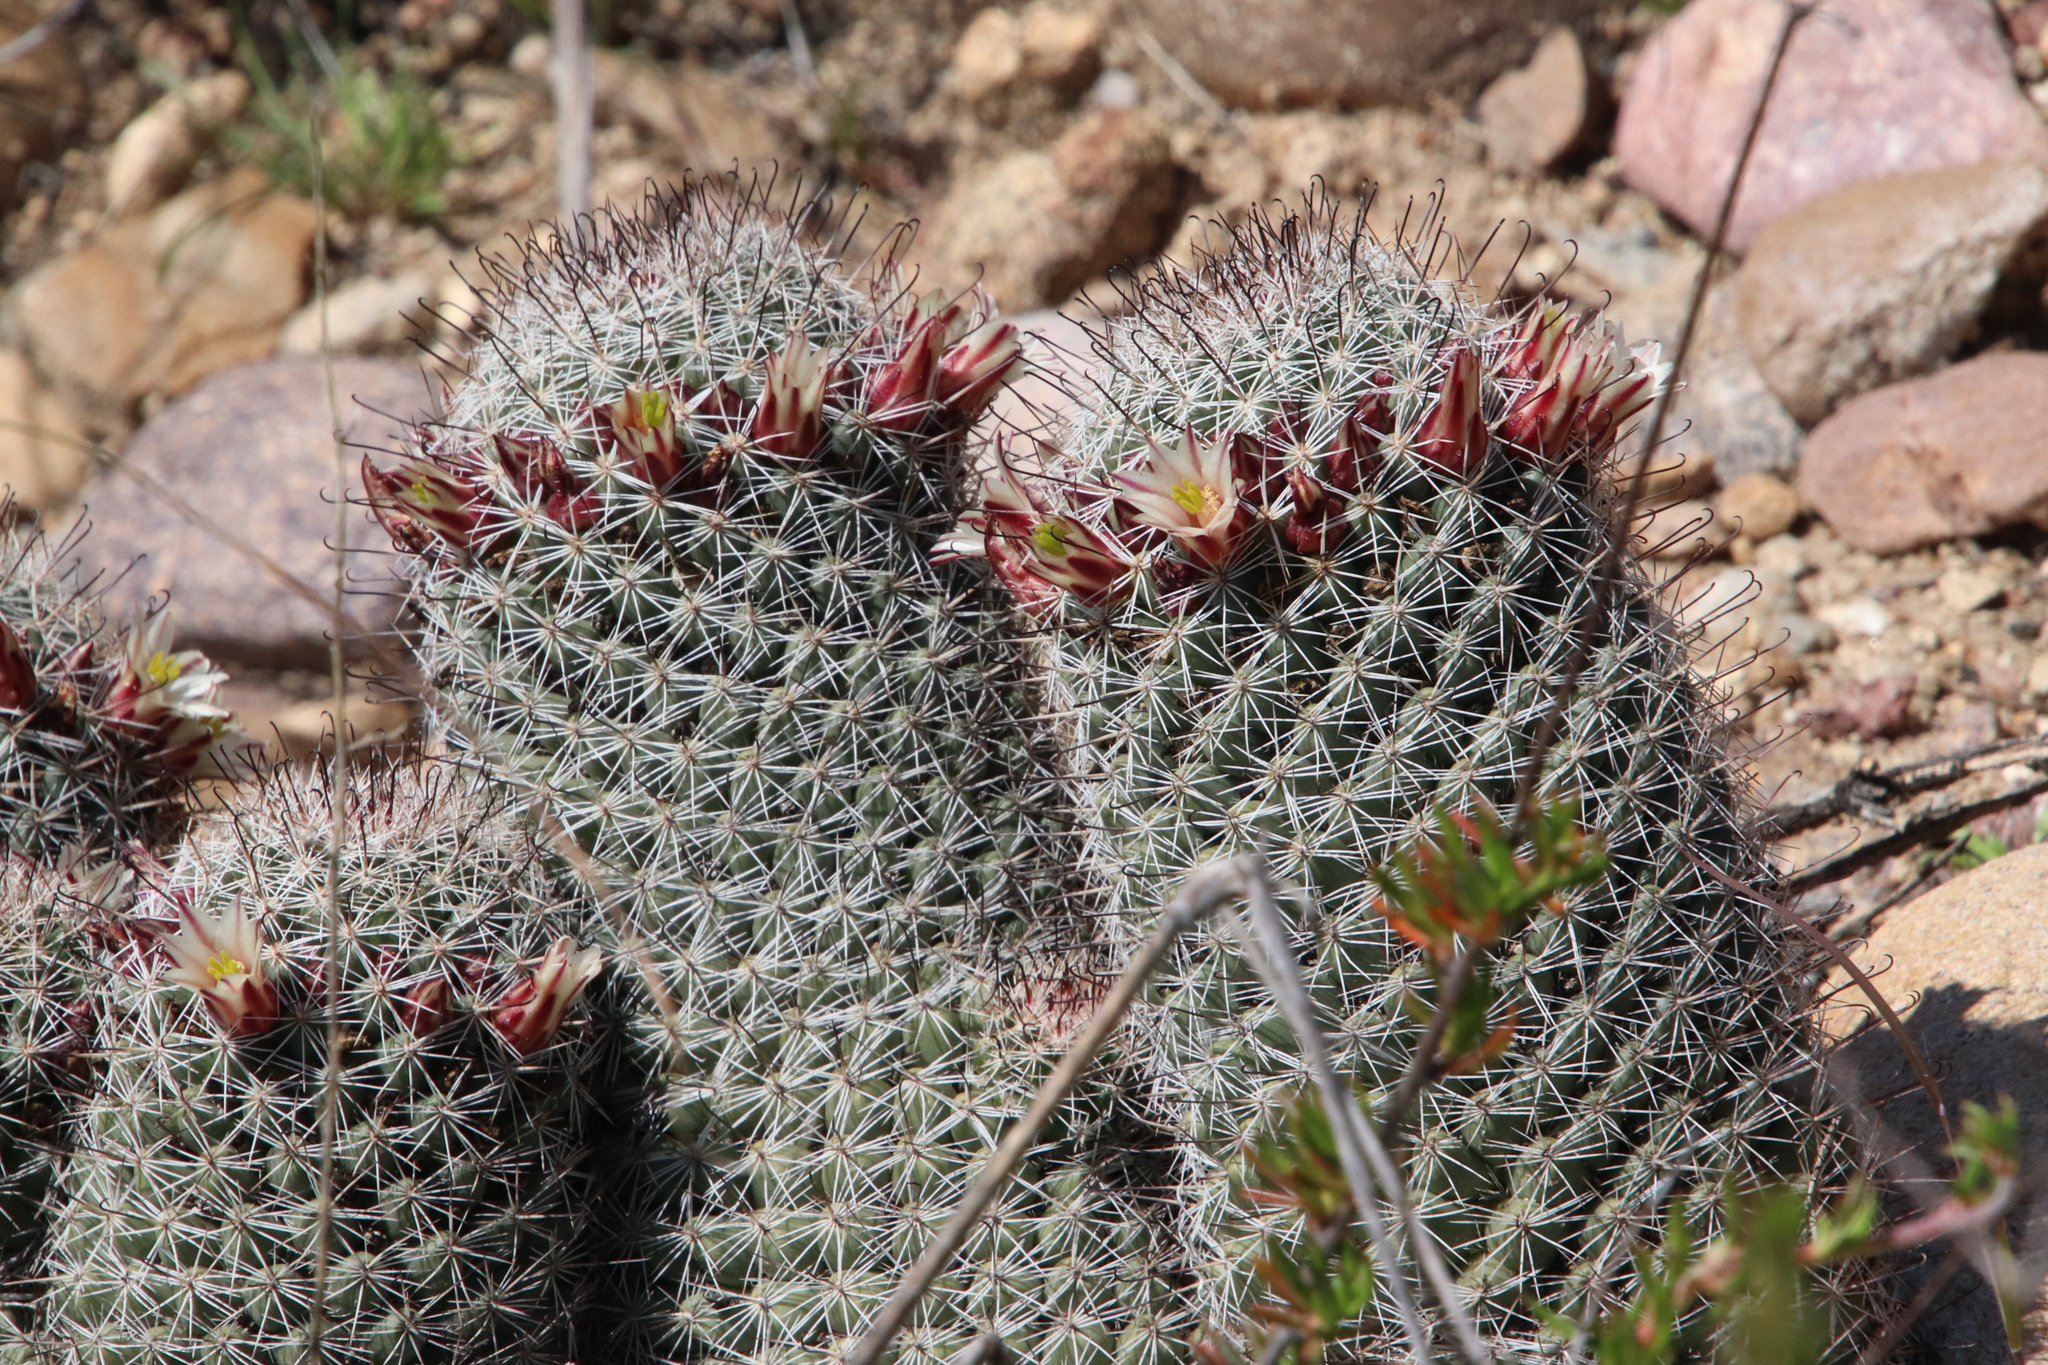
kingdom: Plantae
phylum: Tracheophyta
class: Magnoliopsida
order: Caryophyllales
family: Cactaceae
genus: Cochemiea
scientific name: Cochemiea dioica
